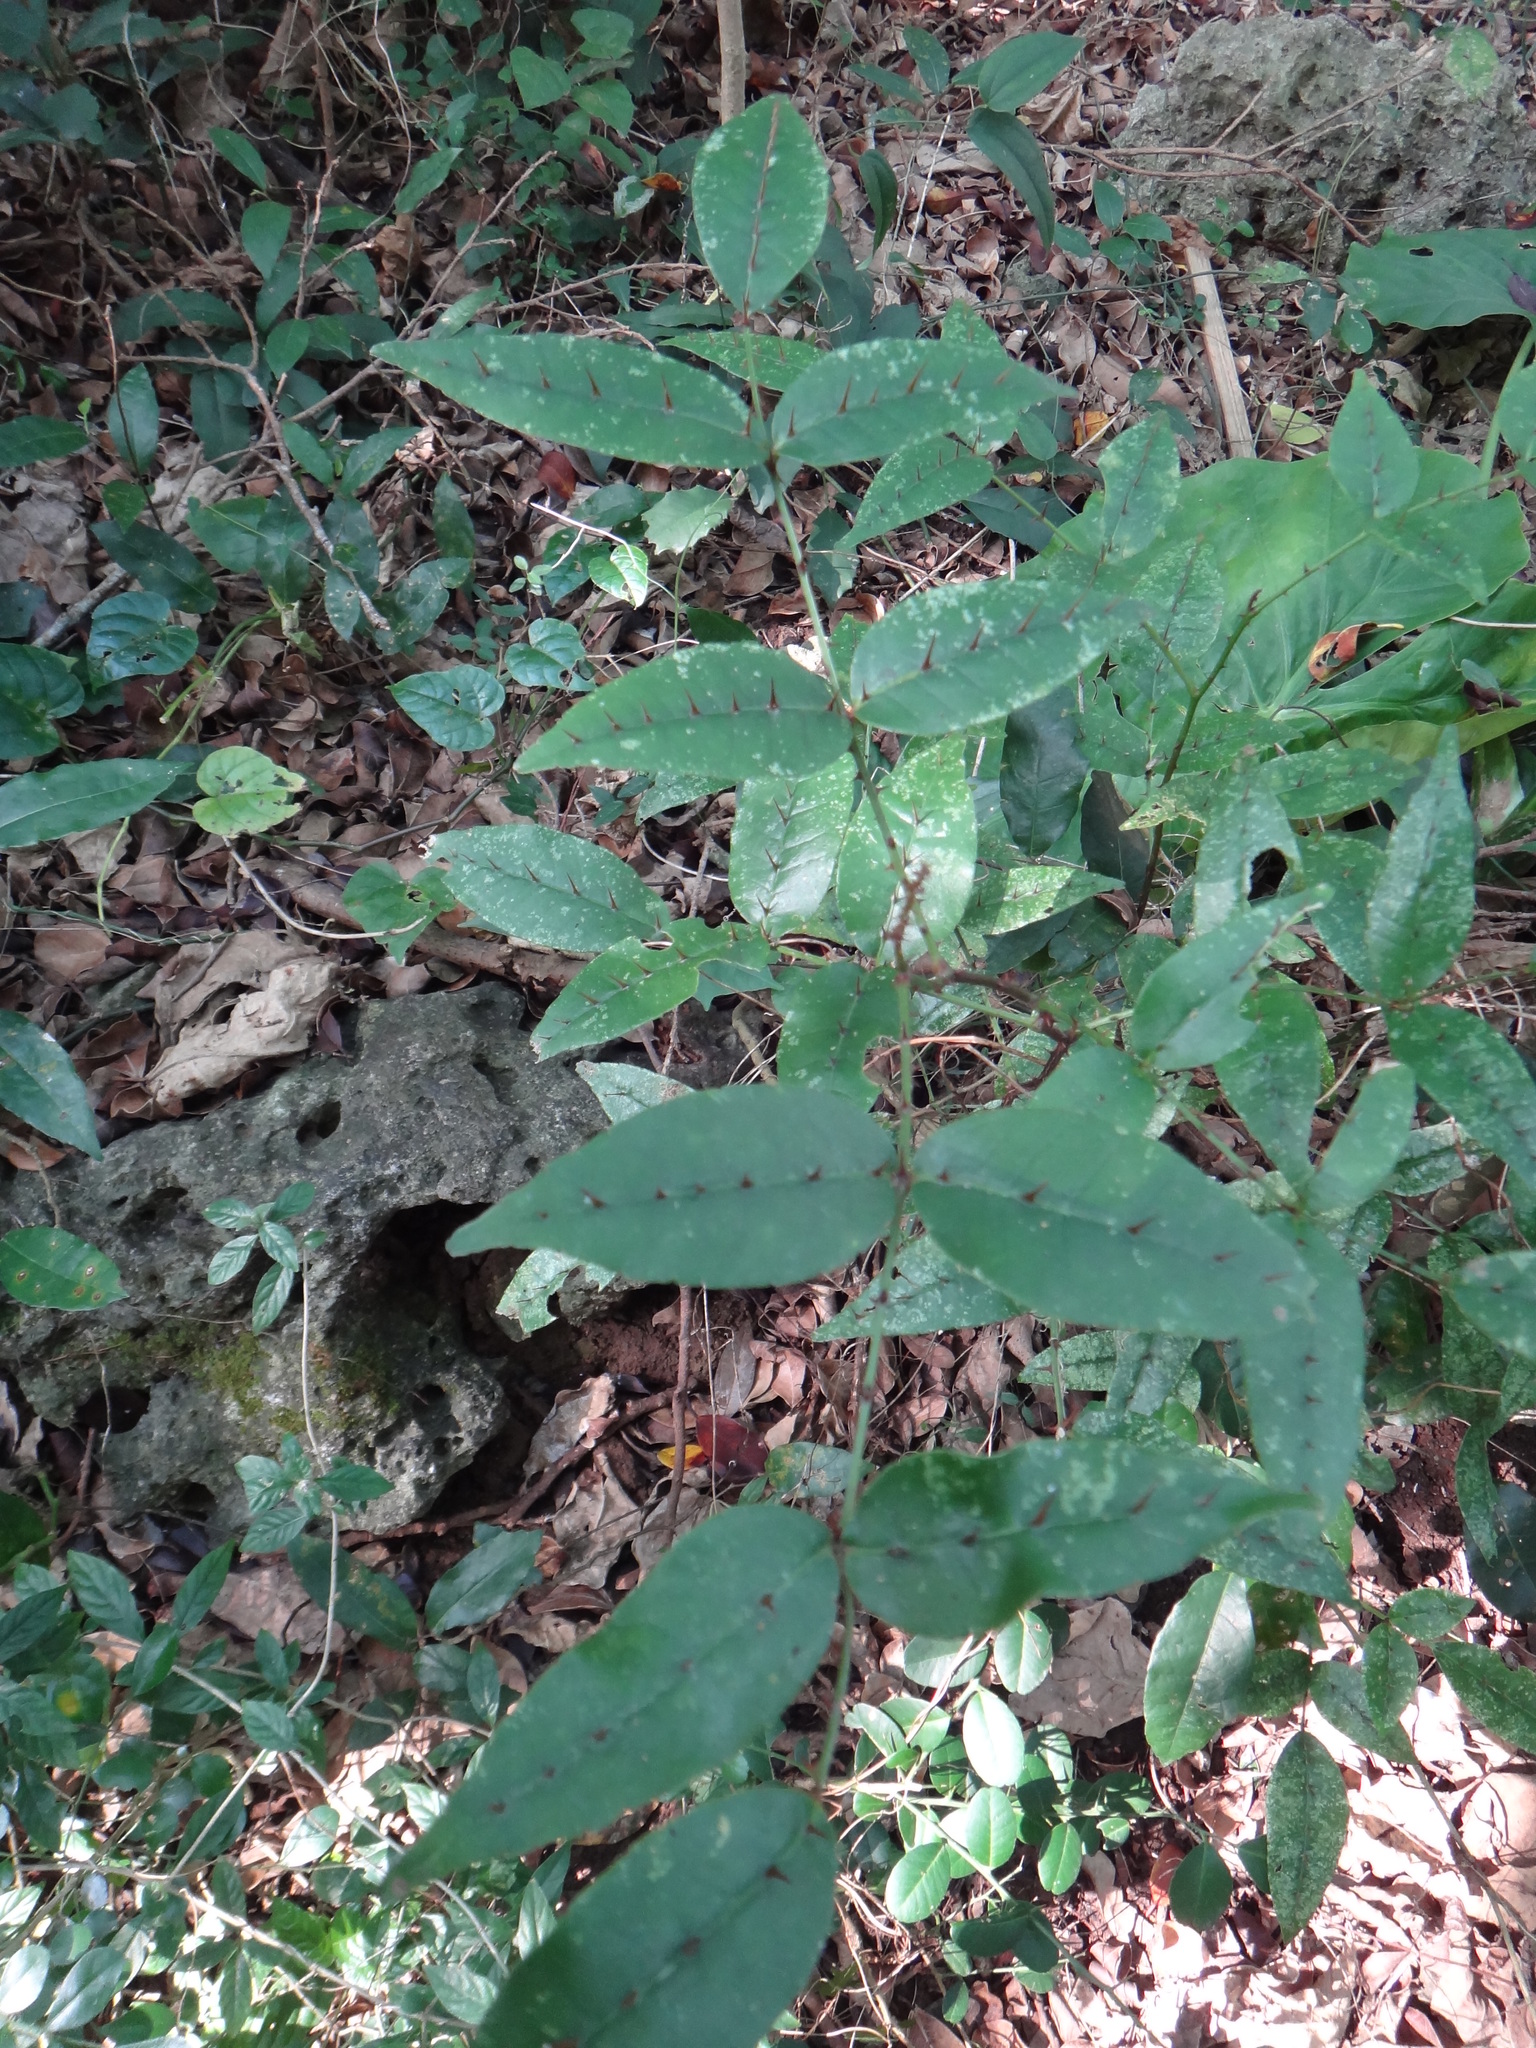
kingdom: Plantae
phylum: Tracheophyta
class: Magnoliopsida
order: Sapindales
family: Rutaceae
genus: Zanthoxylum
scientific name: Zanthoxylum nitidum
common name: Shiny-leaf prickly-ash
